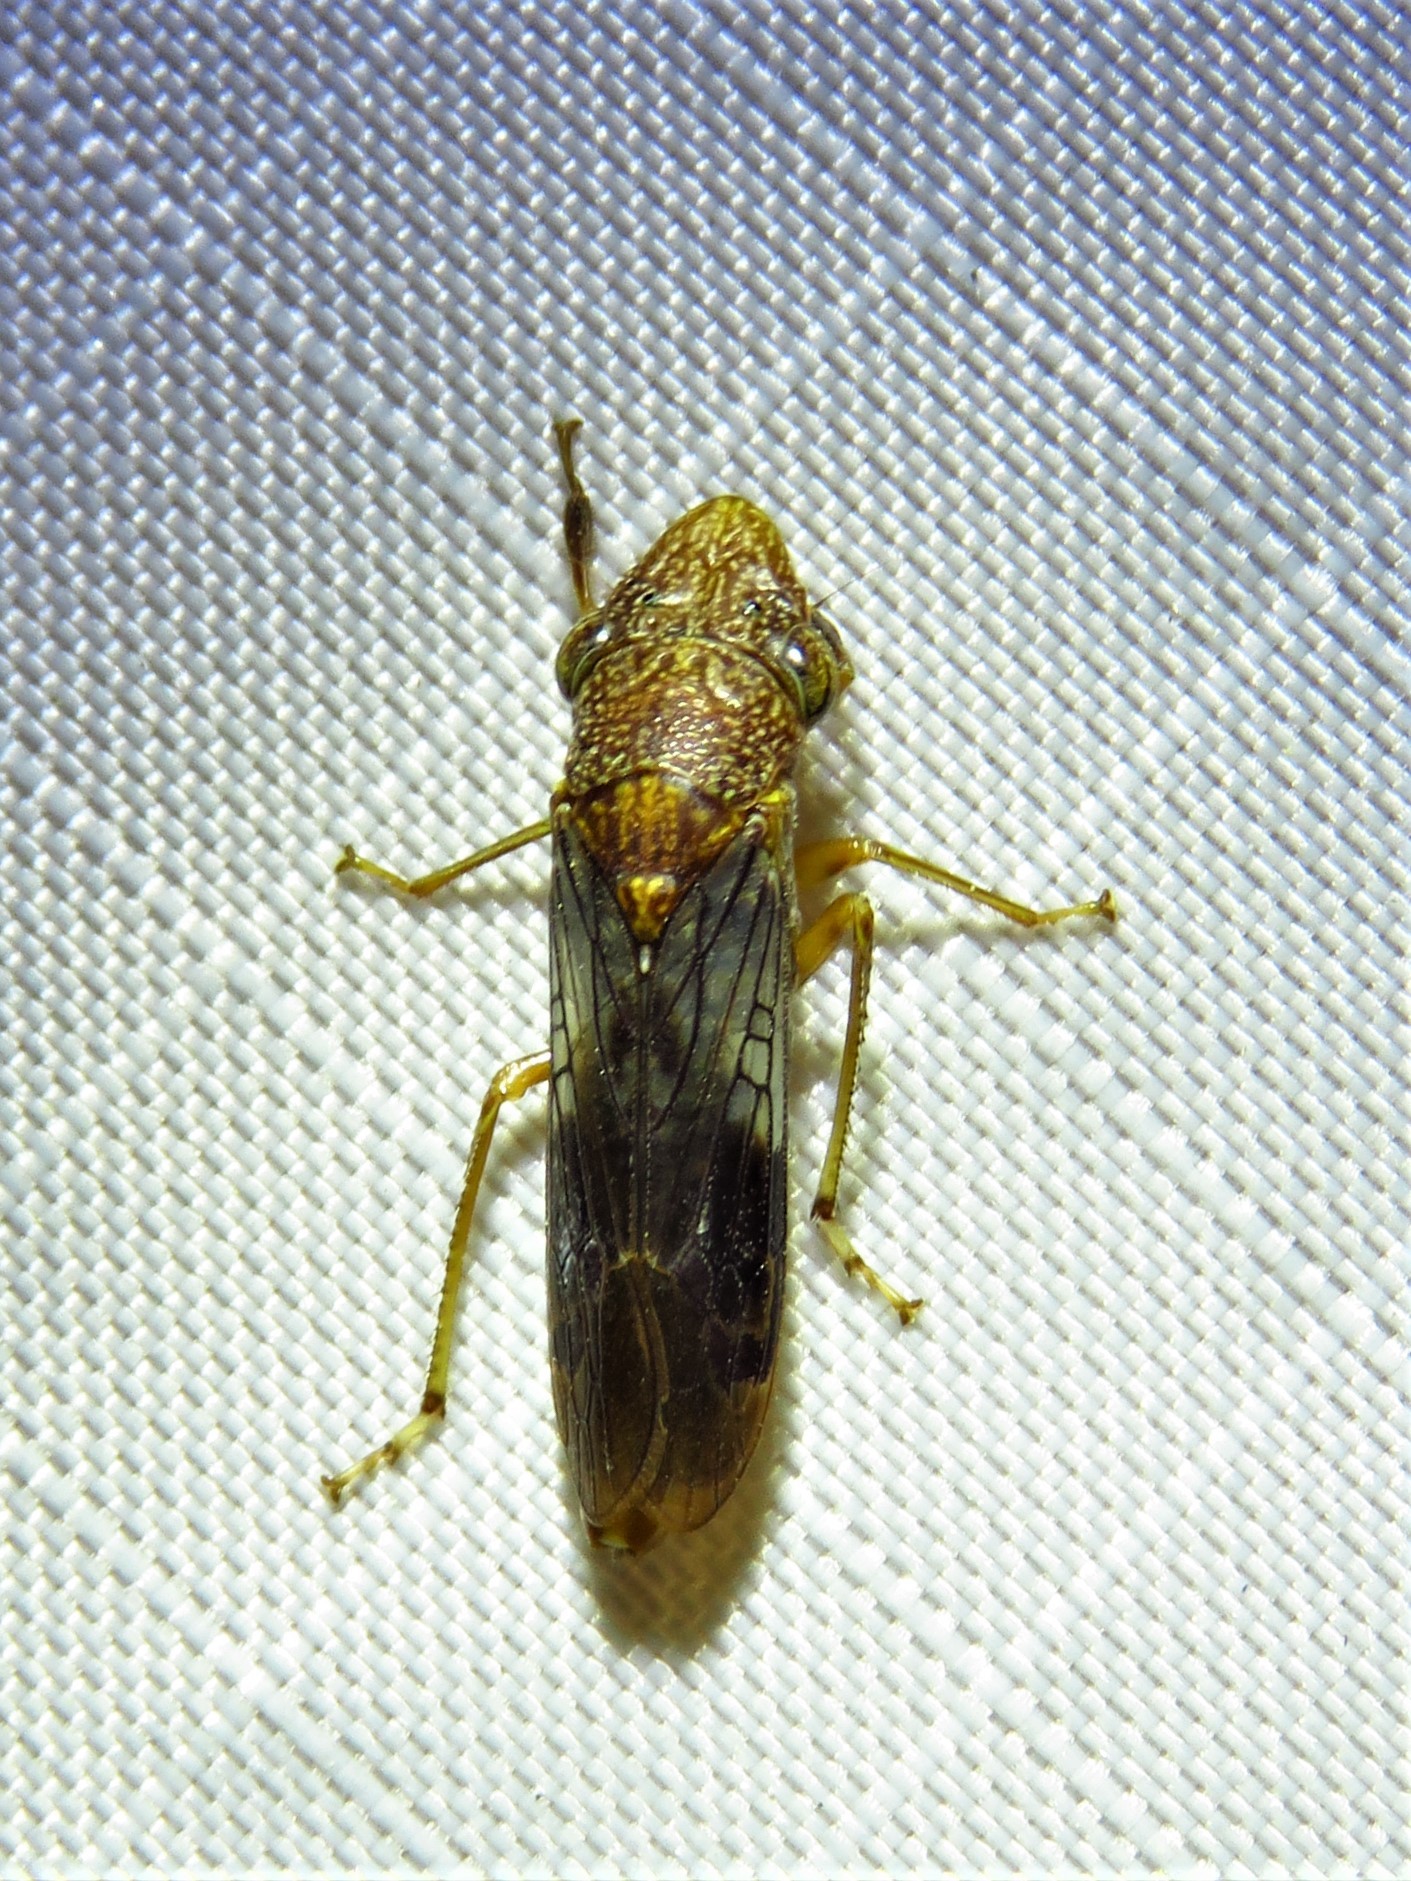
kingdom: Animalia
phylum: Arthropoda
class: Insecta
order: Hemiptera
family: Cicadellidae
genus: Homalodisca
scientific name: Homalodisca vitripennis
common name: Glassy-winged sharpshooter
